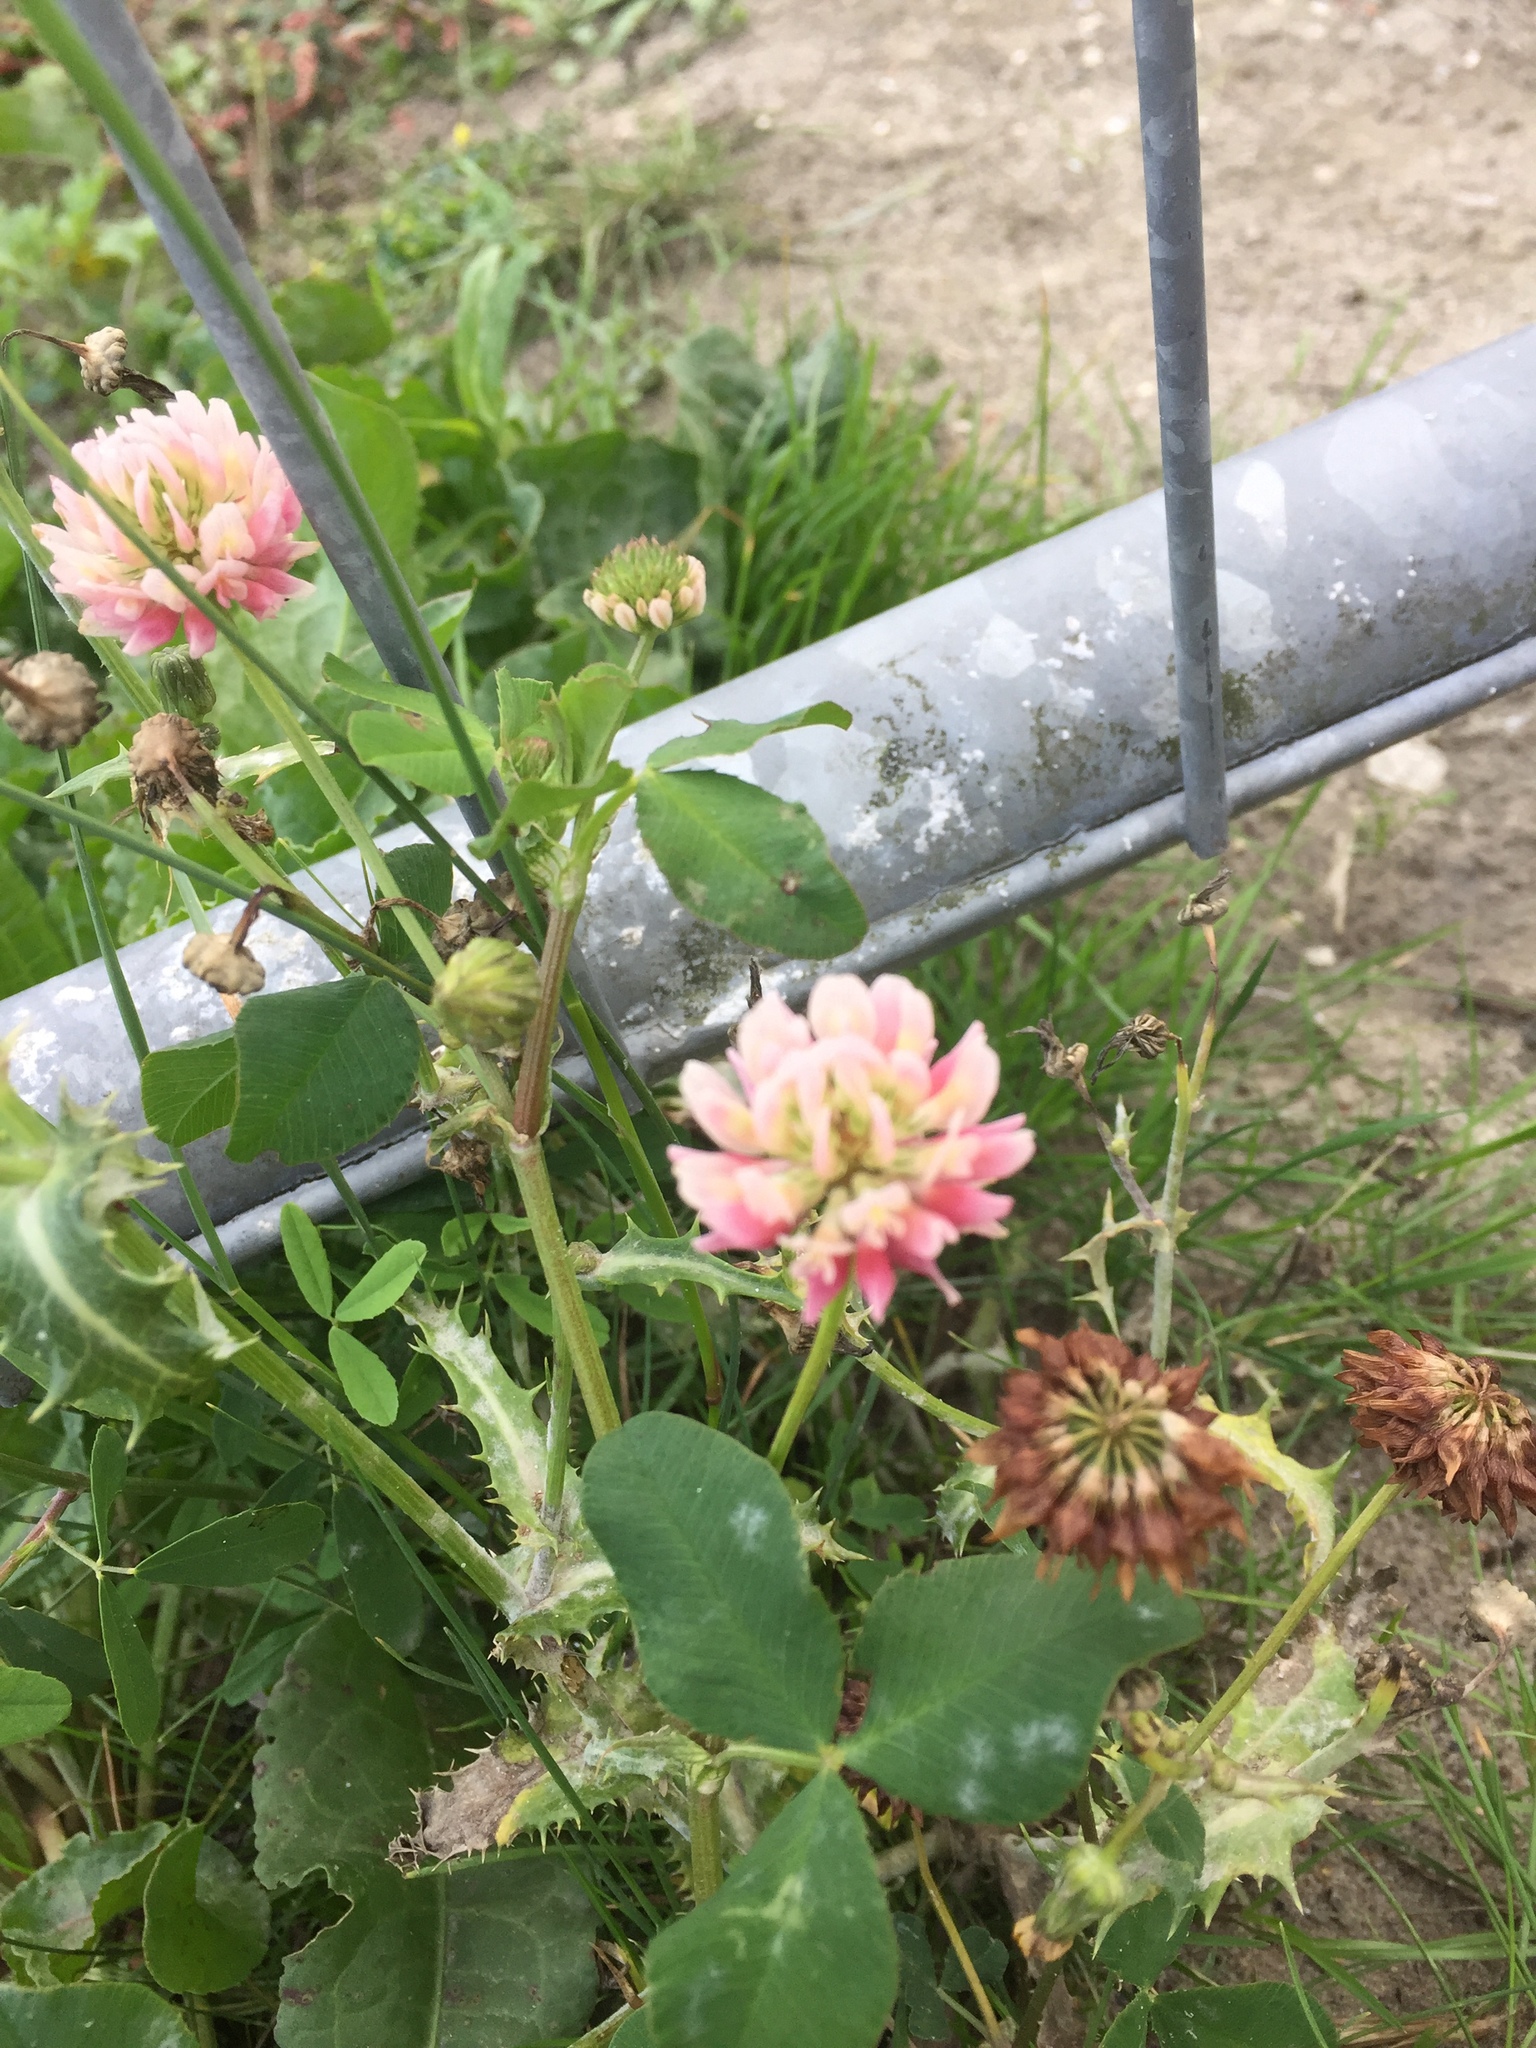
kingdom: Plantae
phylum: Tracheophyta
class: Magnoliopsida
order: Fabales
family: Fabaceae
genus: Trifolium
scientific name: Trifolium hybridum
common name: Alsike clover
